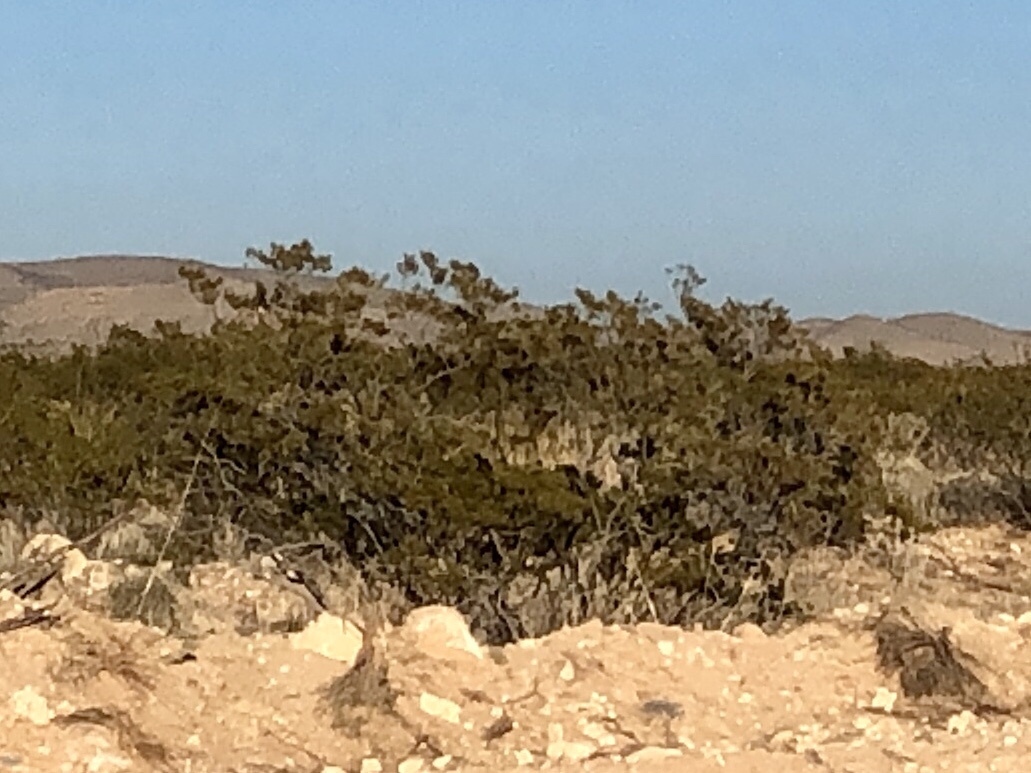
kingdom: Plantae
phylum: Tracheophyta
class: Magnoliopsida
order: Zygophyllales
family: Zygophyllaceae
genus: Larrea
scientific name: Larrea tridentata
